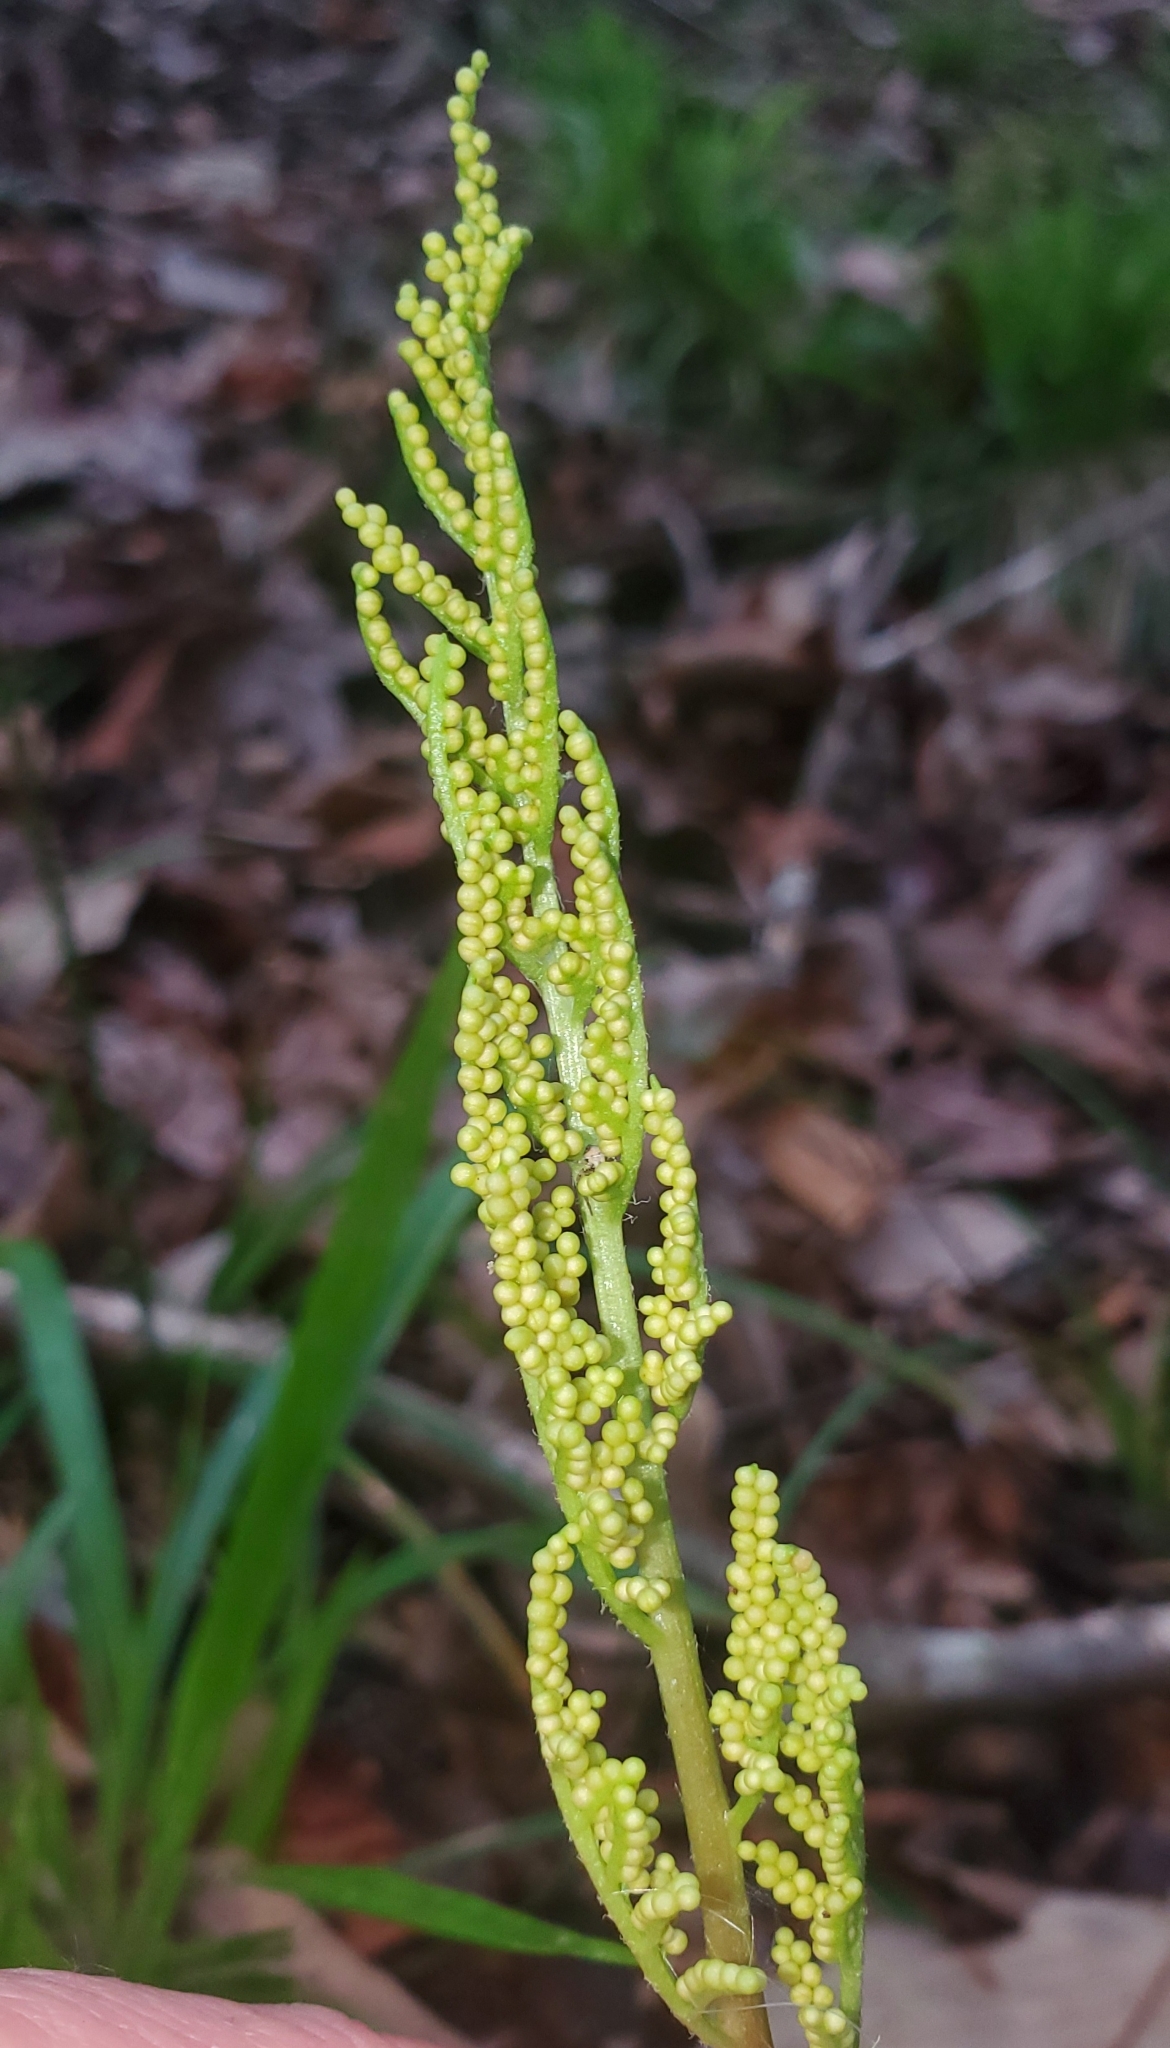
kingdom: Plantae
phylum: Tracheophyta
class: Polypodiopsida
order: Ophioglossales
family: Ophioglossaceae
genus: Sceptridium
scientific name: Sceptridium biternatum
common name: Sparse-lobed grapefern
